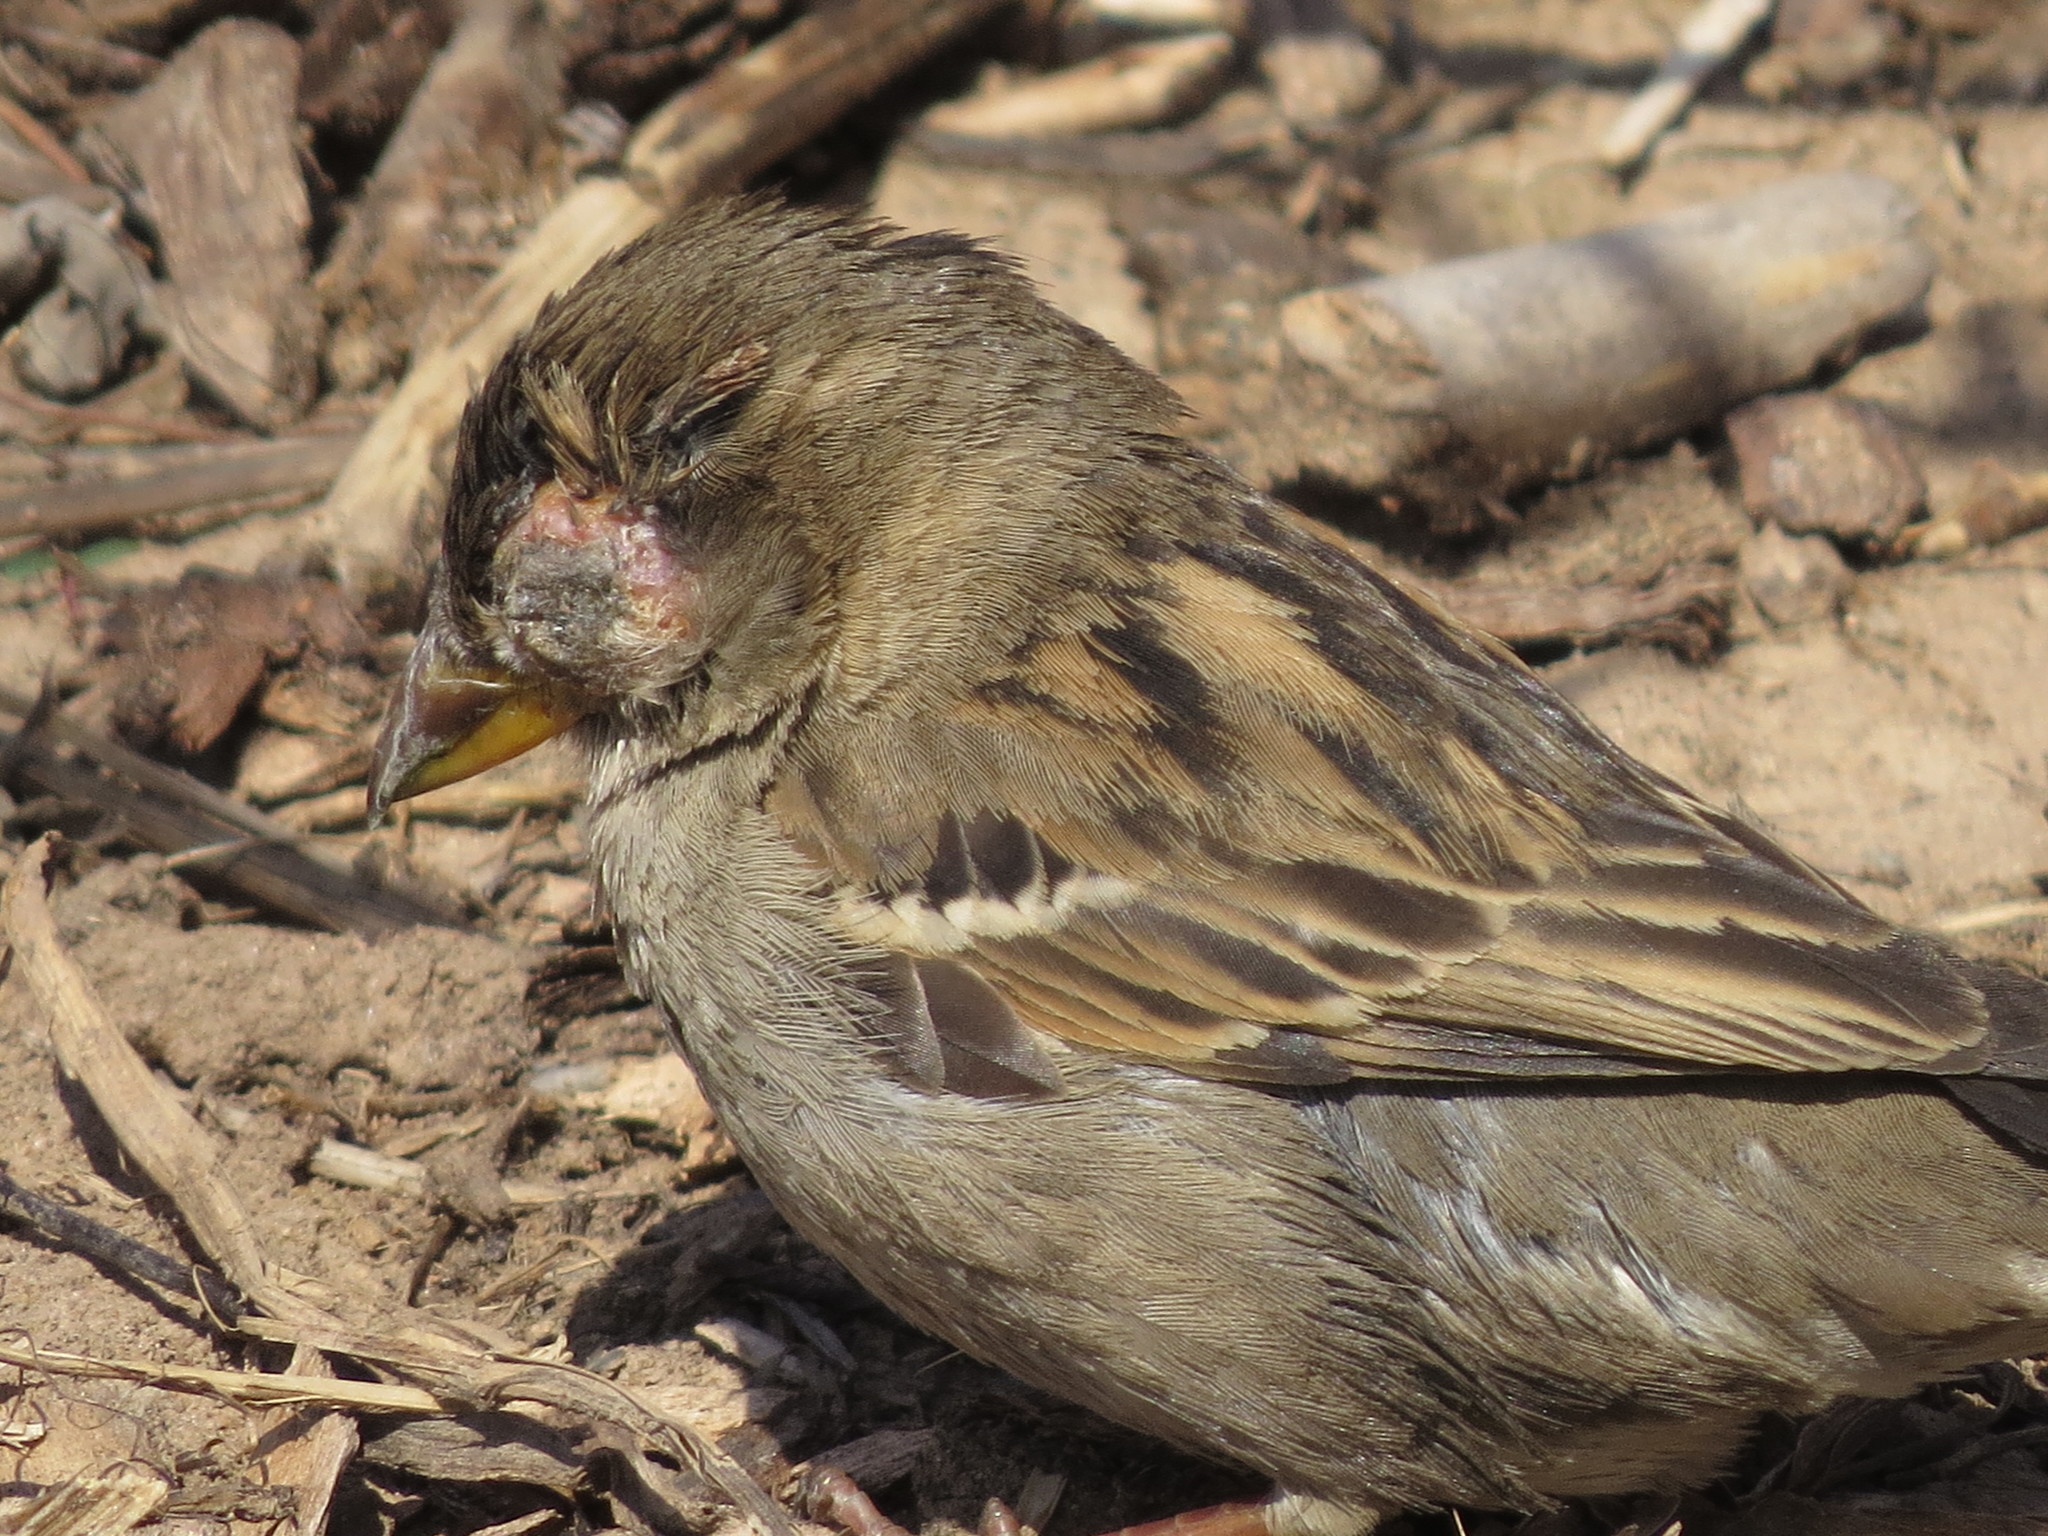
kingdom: Animalia
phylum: Chordata
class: Aves
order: Passeriformes
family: Passeridae
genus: Passer
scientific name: Passer domesticus
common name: House sparrow
